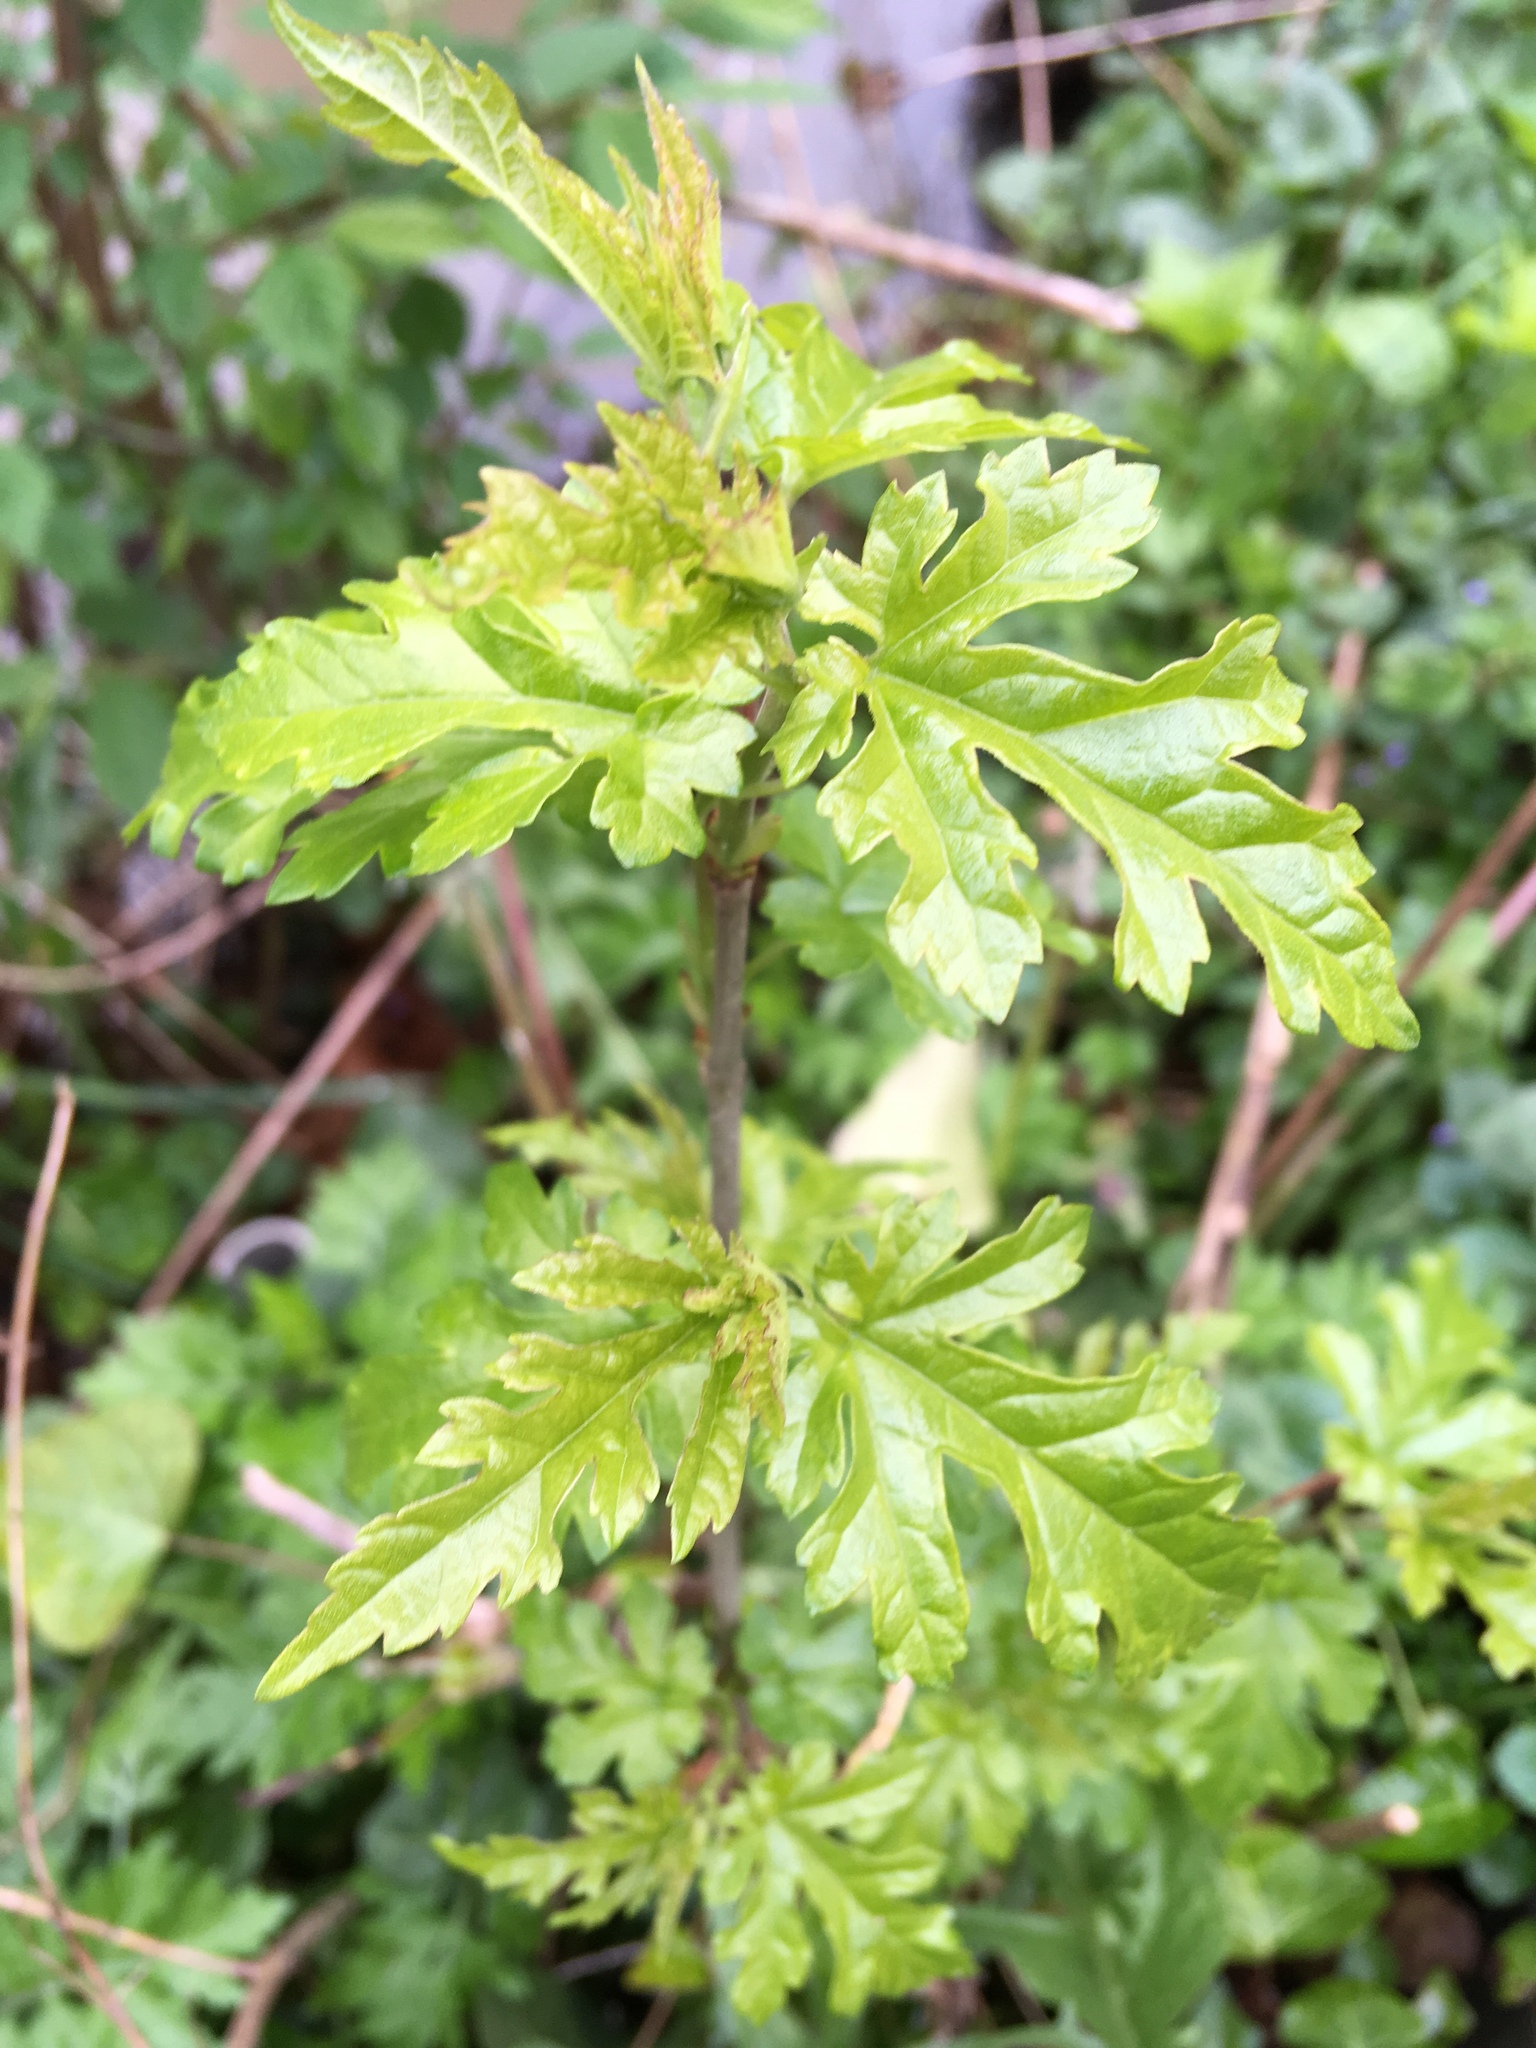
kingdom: Plantae
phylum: Tracheophyta
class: Magnoliopsida
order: Rosales
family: Moraceae
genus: Morus
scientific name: Morus alba
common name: White mulberry
